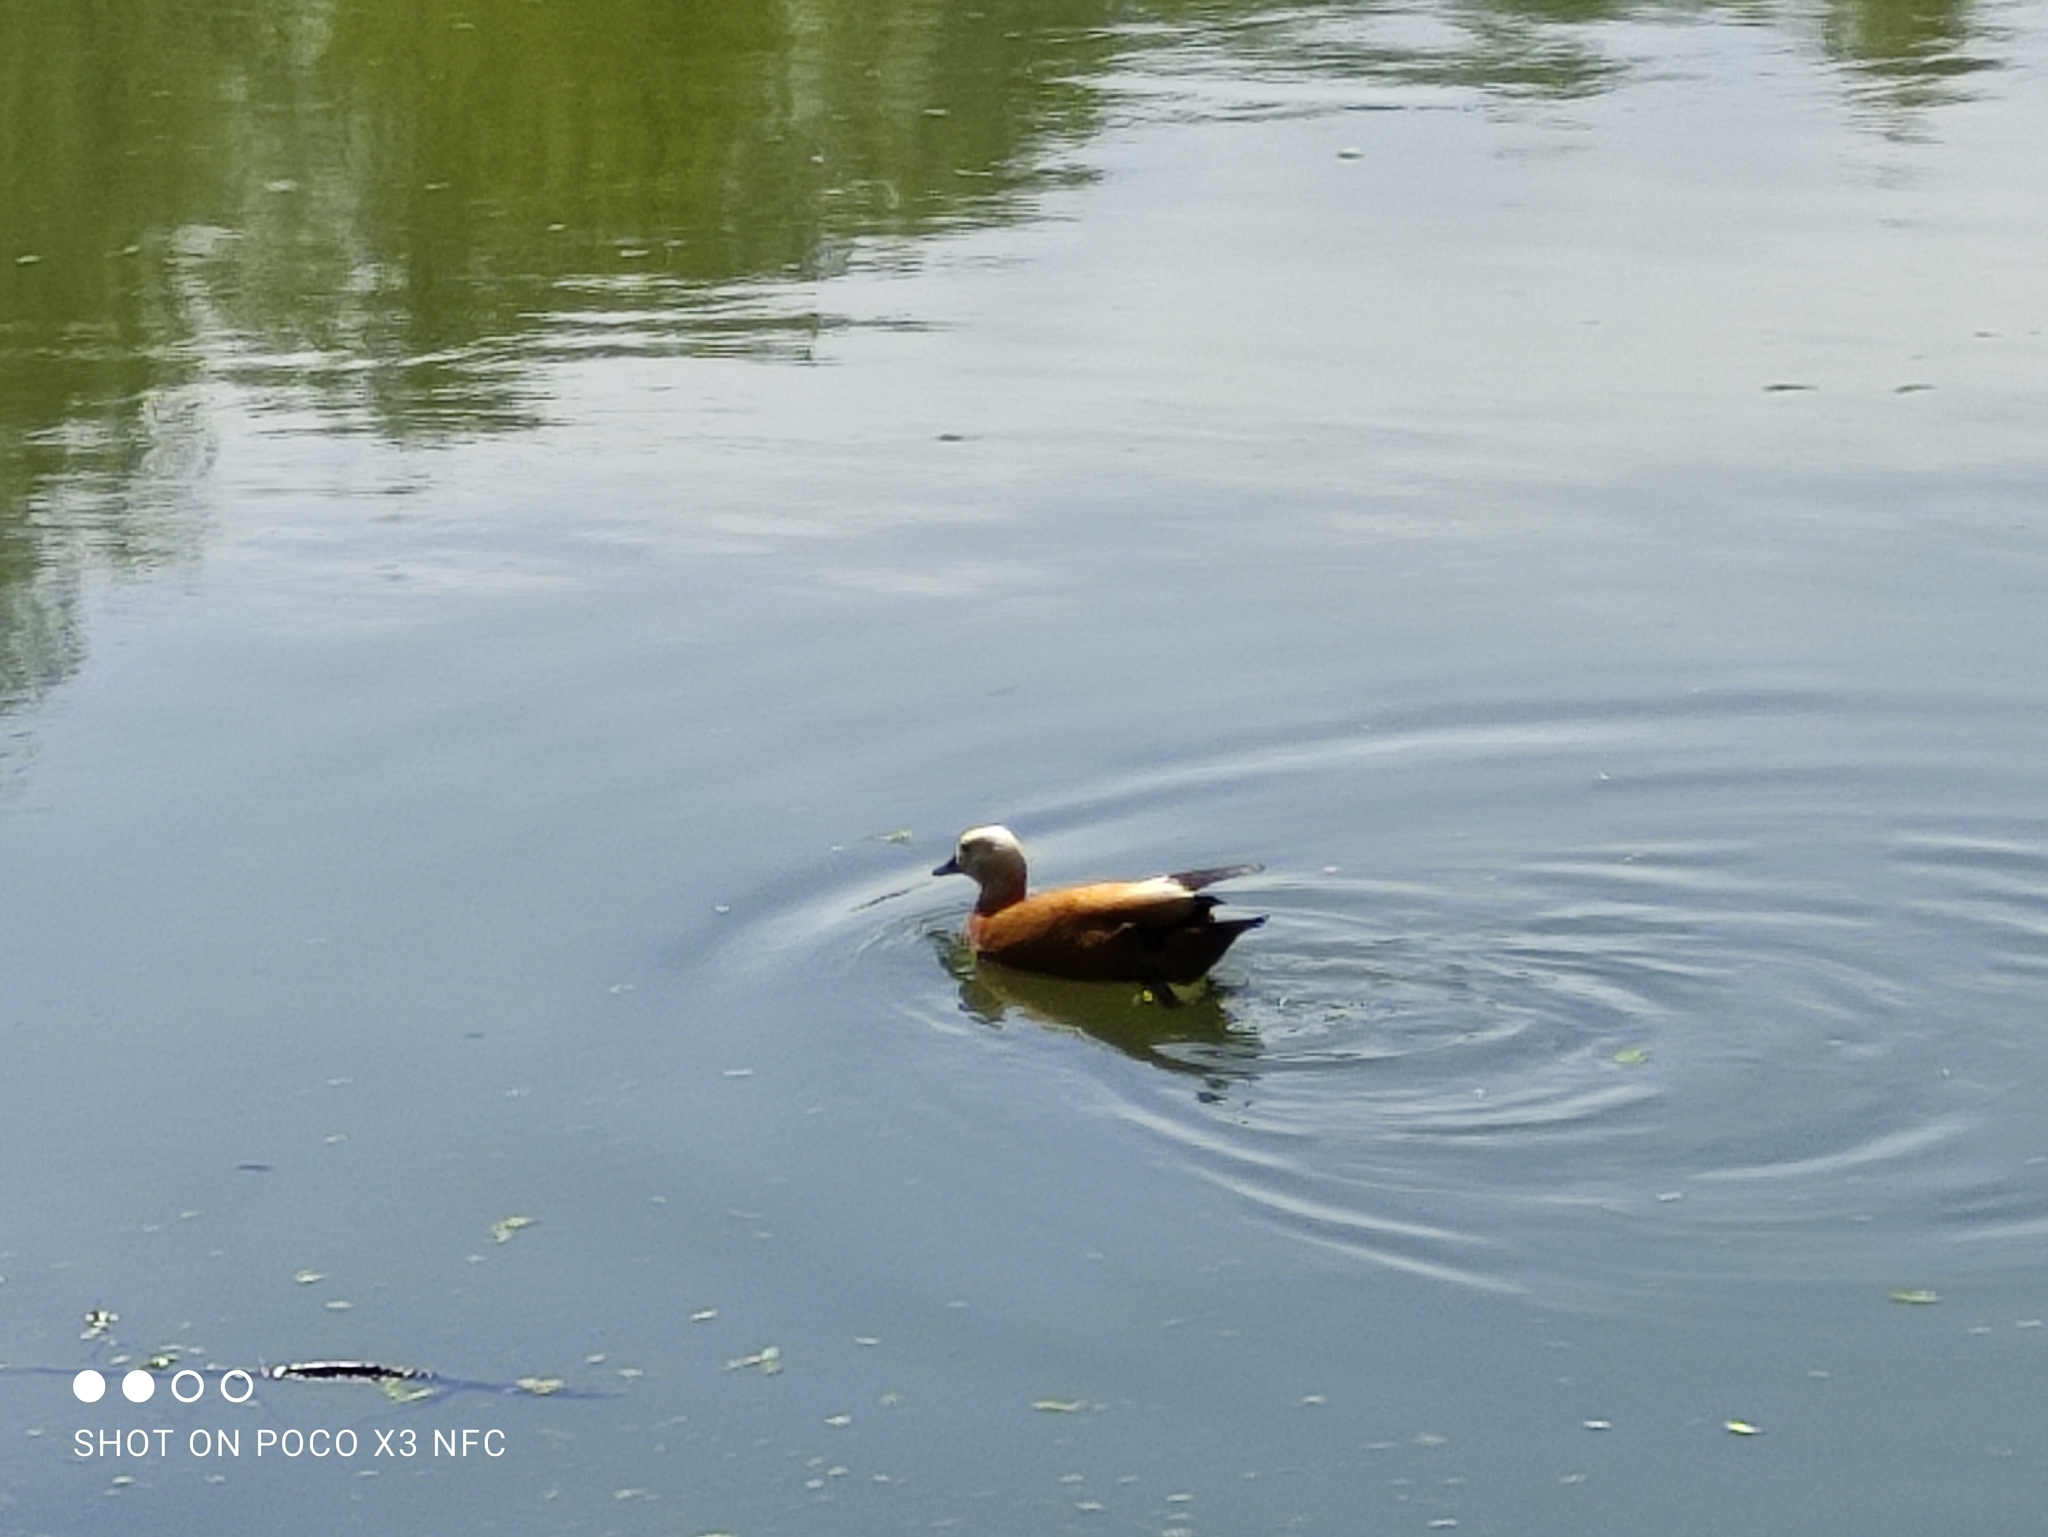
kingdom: Animalia
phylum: Chordata
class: Aves
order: Anseriformes
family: Anatidae
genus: Tadorna
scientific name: Tadorna ferruginea
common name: Ruddy shelduck
